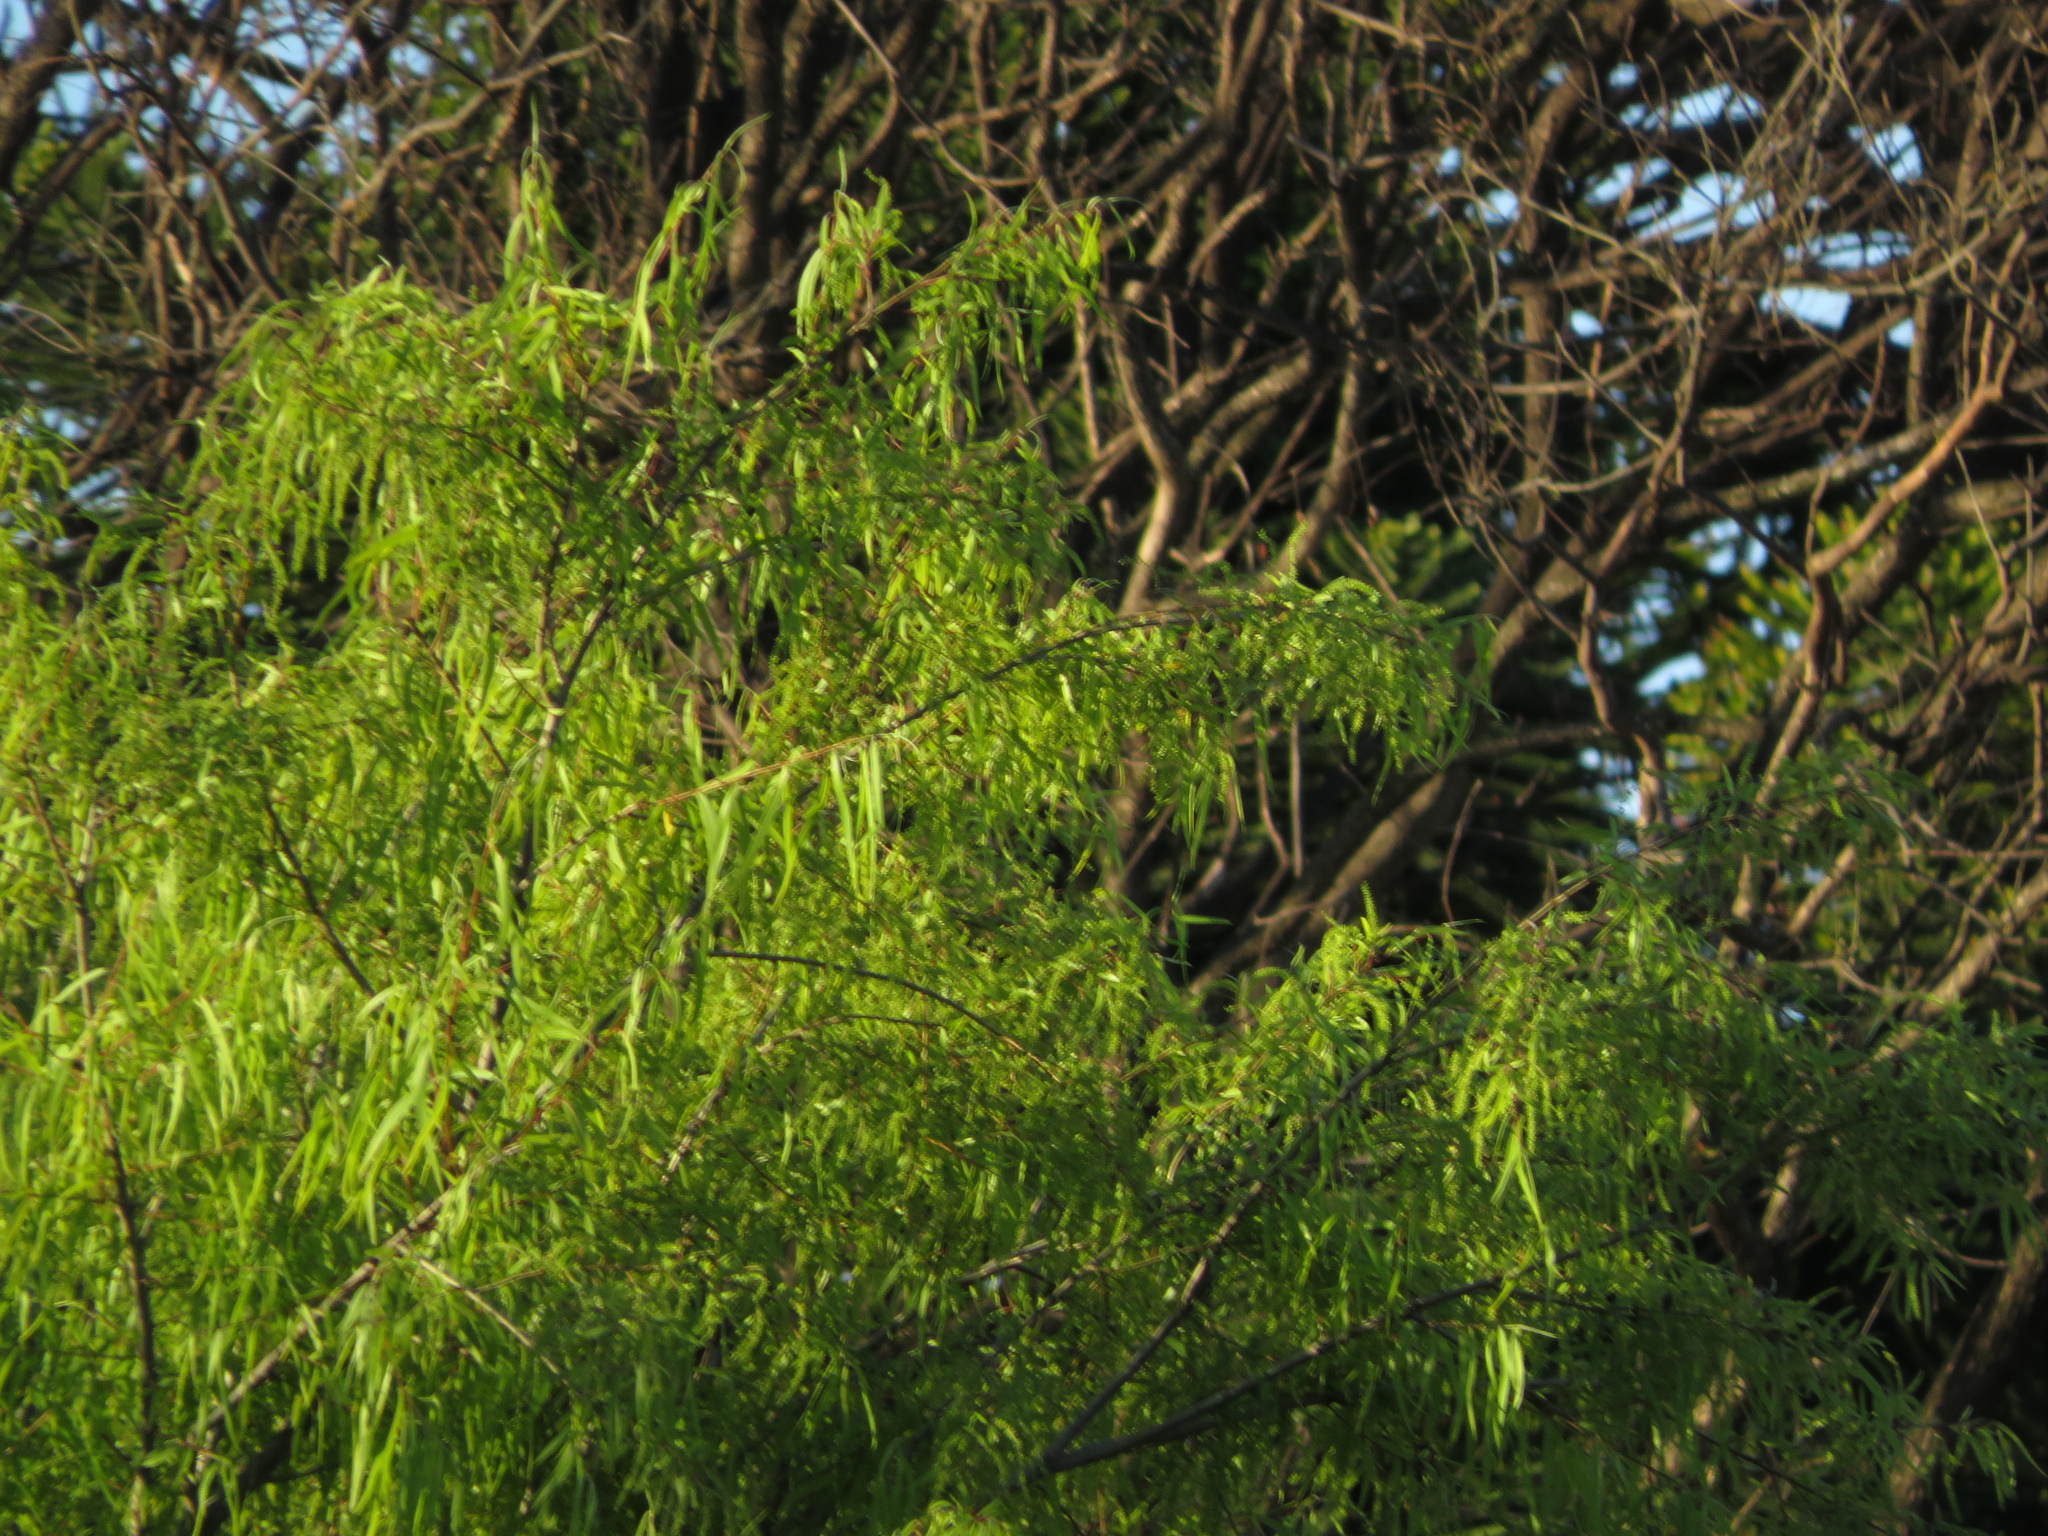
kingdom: Plantae
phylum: Tracheophyta
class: Magnoliopsida
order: Malpighiales
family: Salicaceae
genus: Salix
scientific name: Salix humboldtiana
